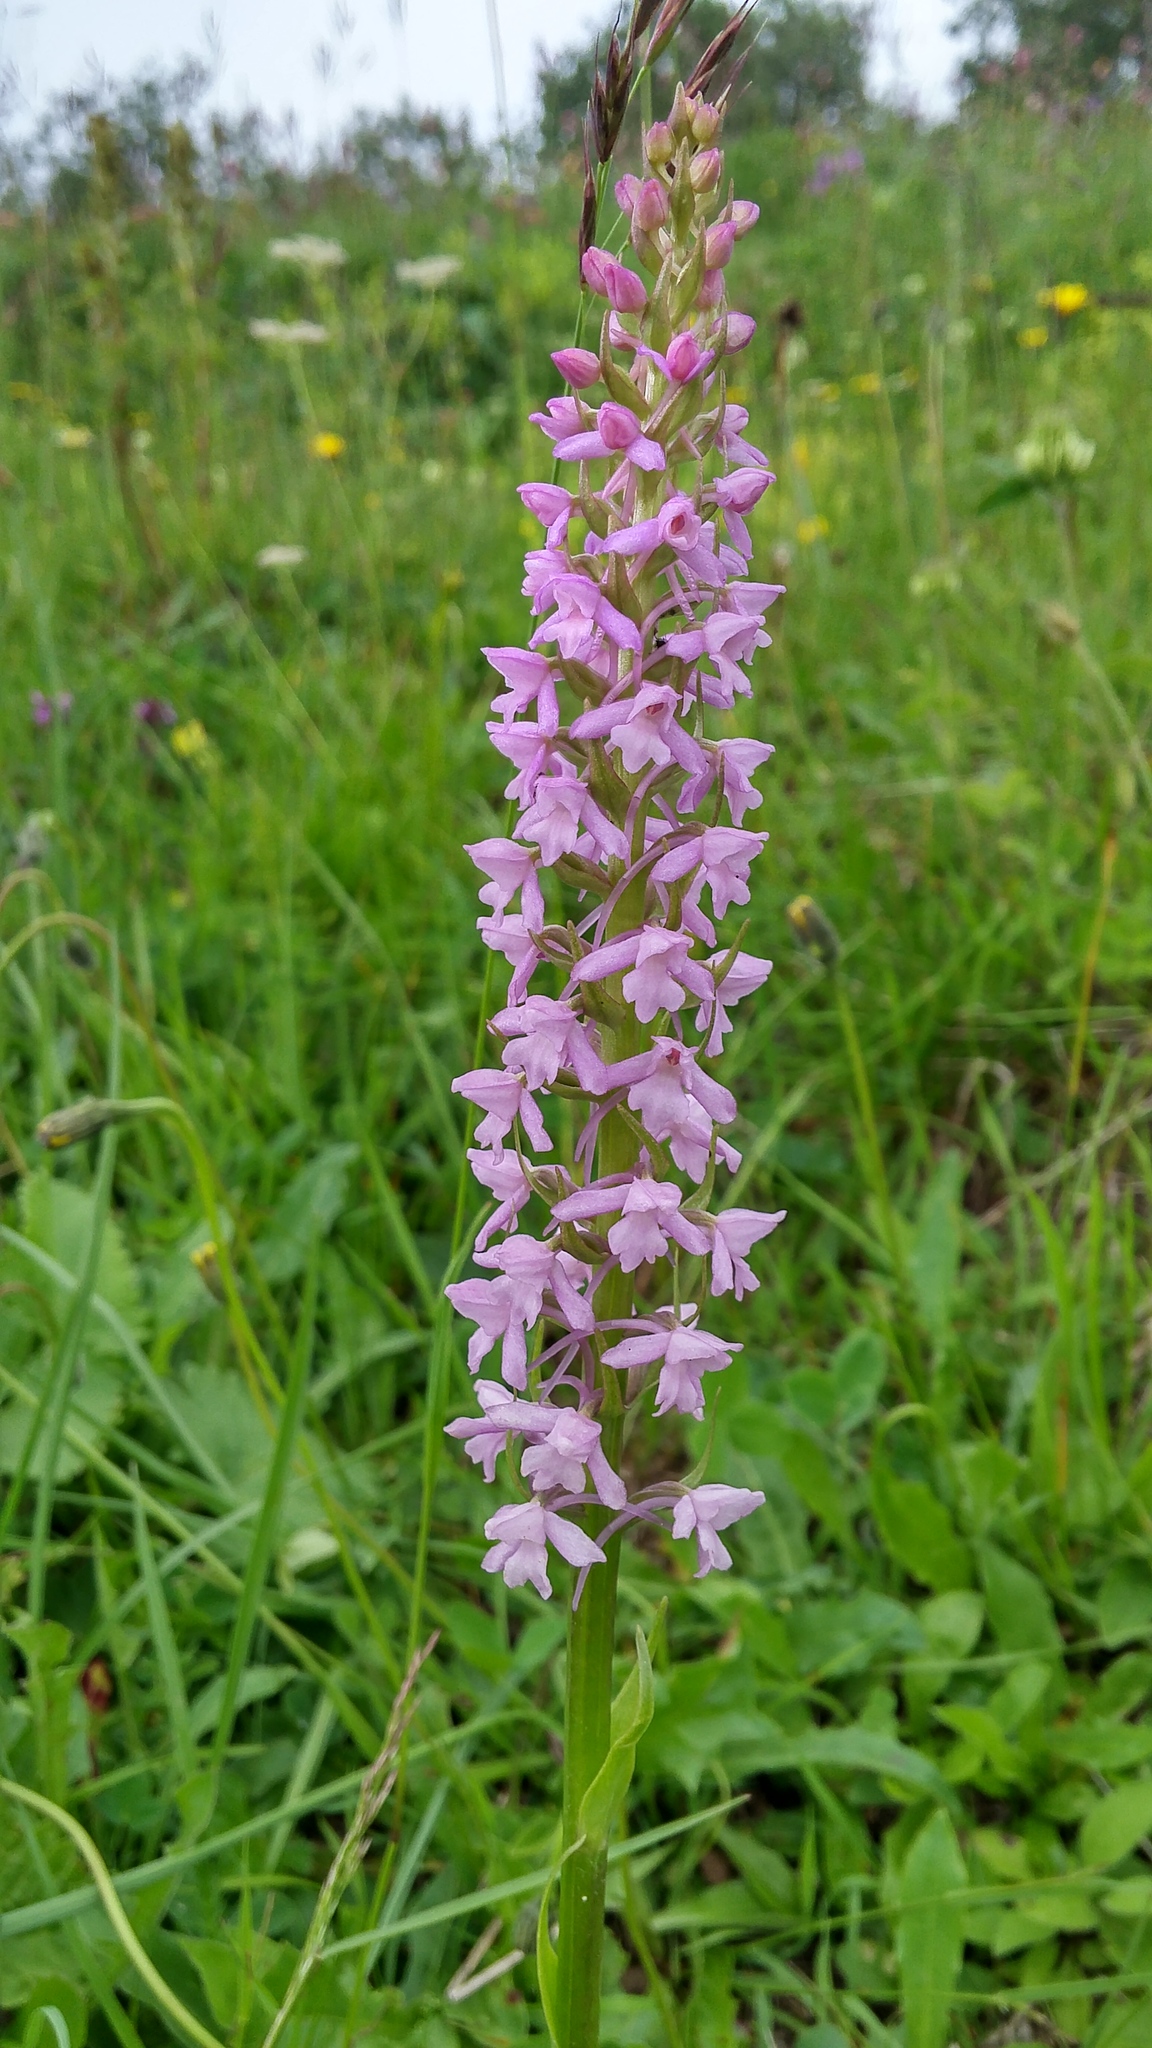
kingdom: Plantae
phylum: Tracheophyta
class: Liliopsida
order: Asparagales
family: Orchidaceae
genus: Gymnadenia
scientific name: Gymnadenia conopsea
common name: Fragrant orchid
